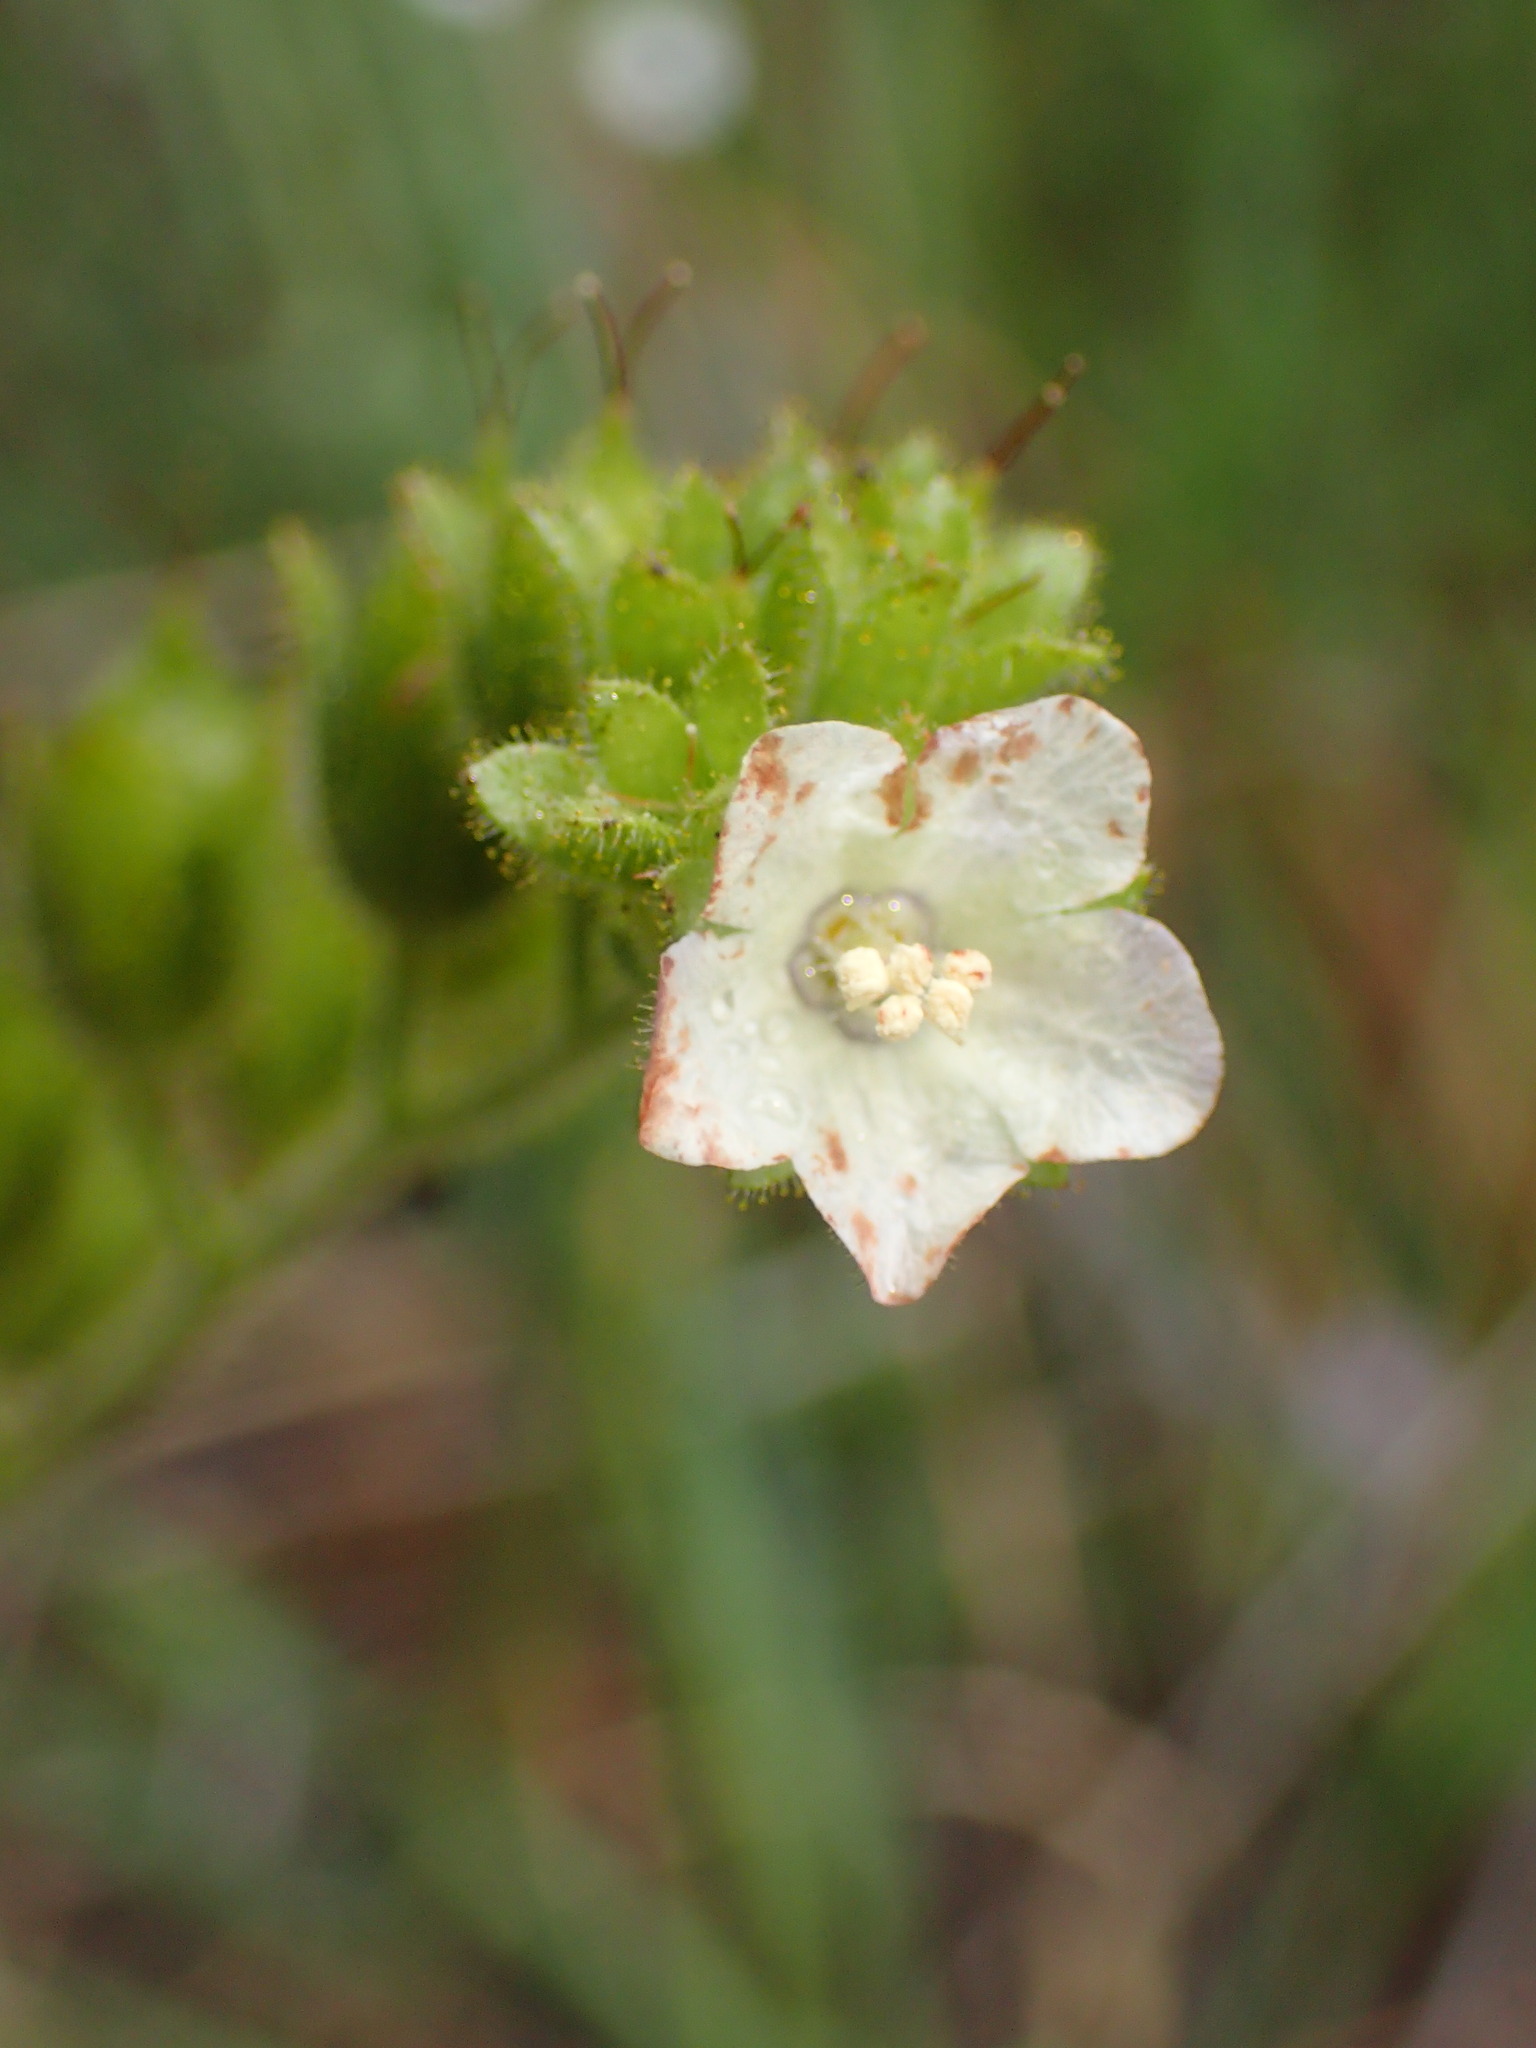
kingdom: Plantae
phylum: Tracheophyta
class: Magnoliopsida
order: Boraginales
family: Hydrophyllaceae
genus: Phacelia
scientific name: Phacelia viscida
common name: Sticky phacelia
